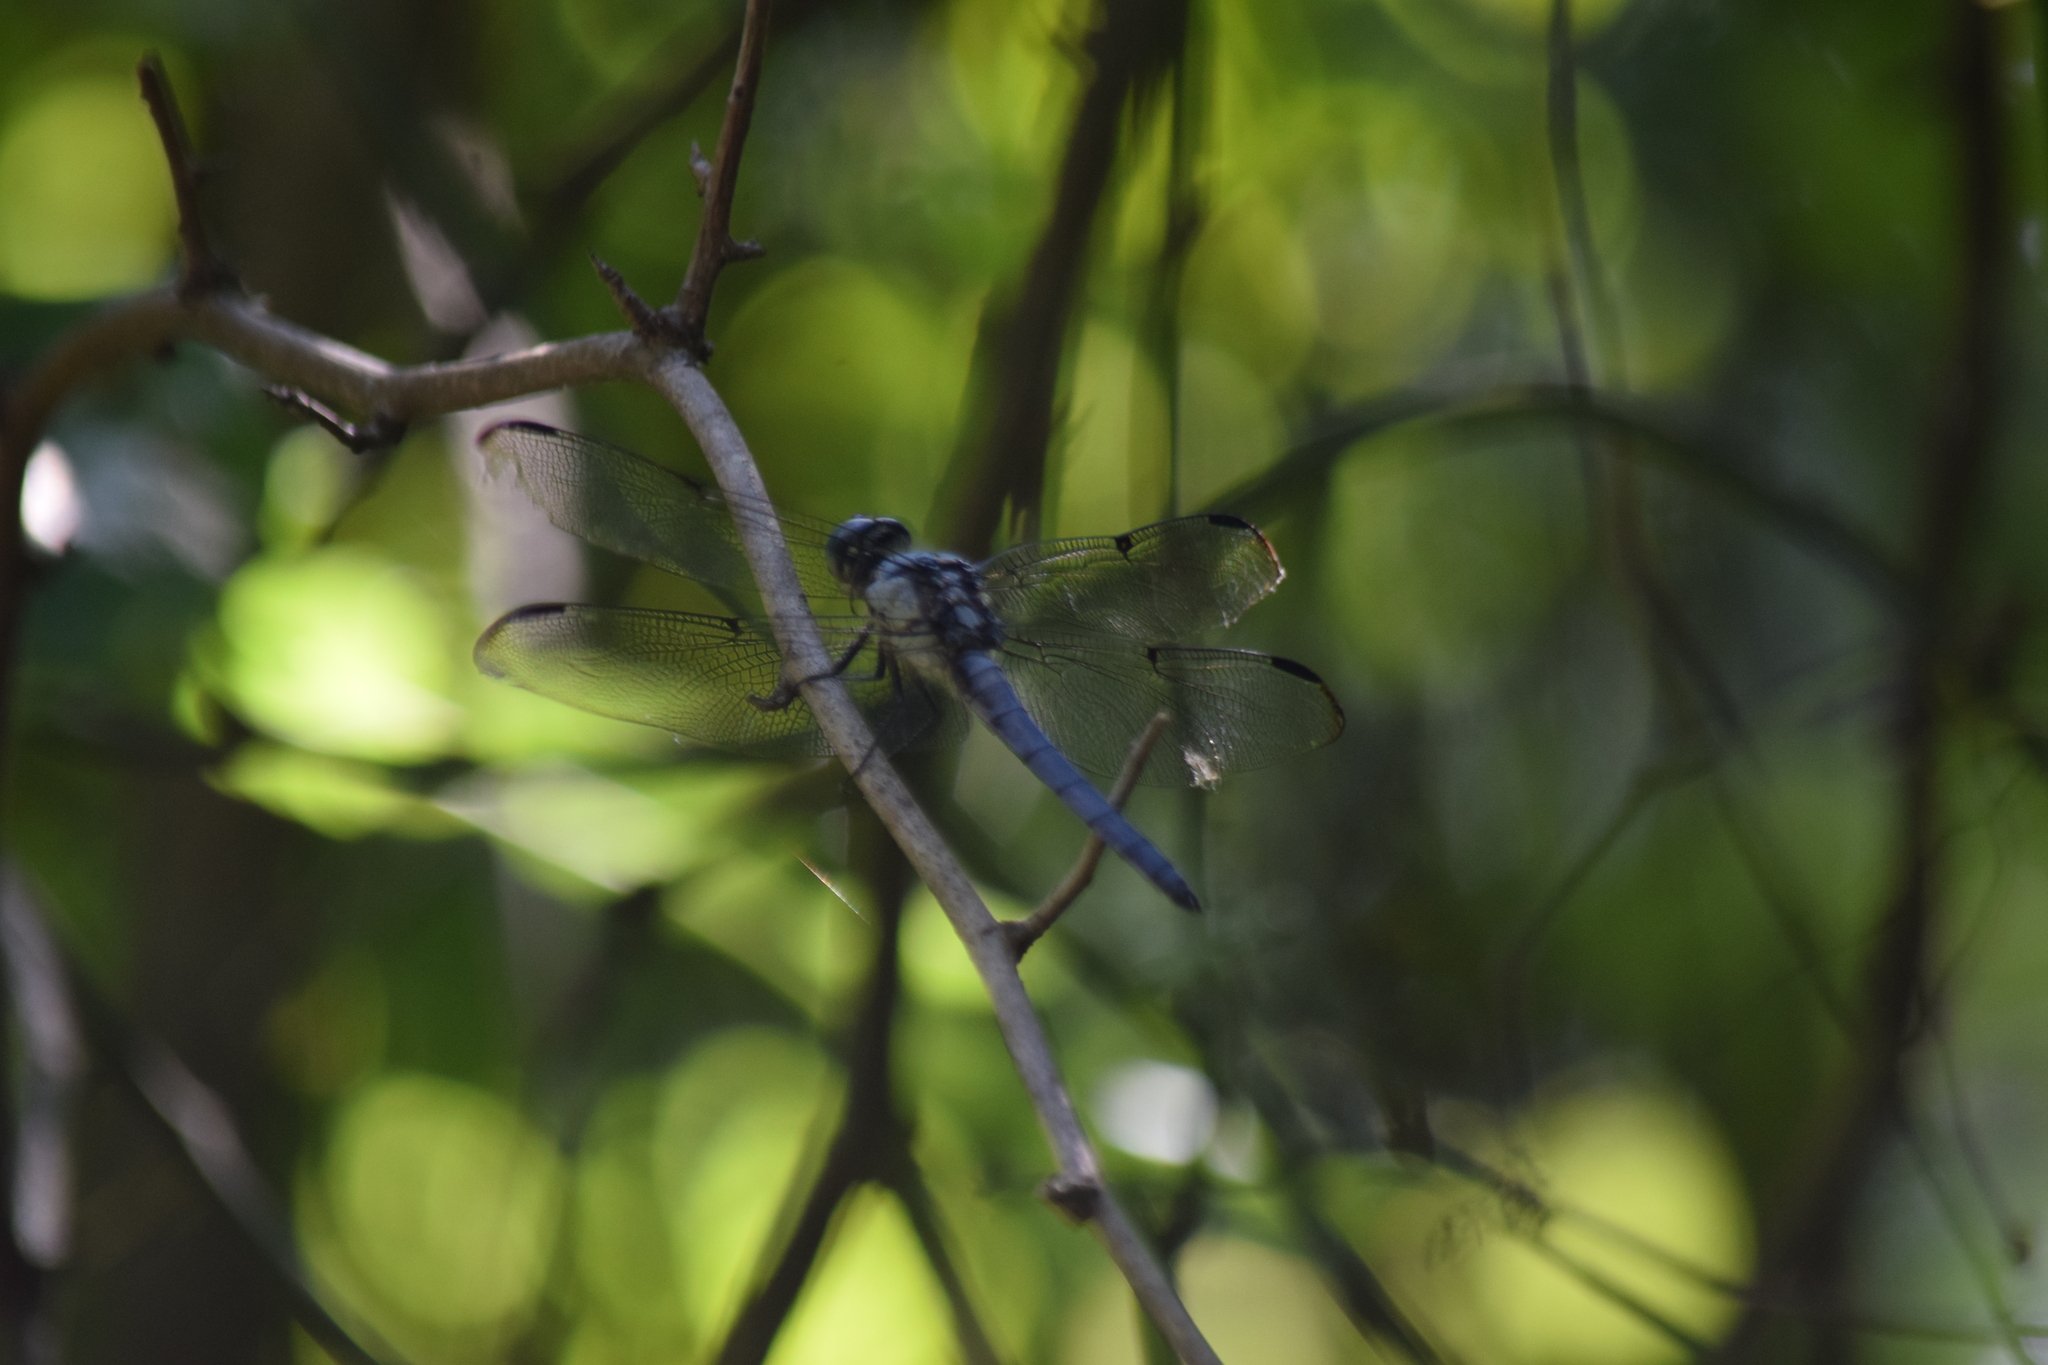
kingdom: Animalia
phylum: Arthropoda
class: Insecta
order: Odonata
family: Libellulidae
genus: Libellula
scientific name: Libellula vibrans
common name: Great blue skimmer
